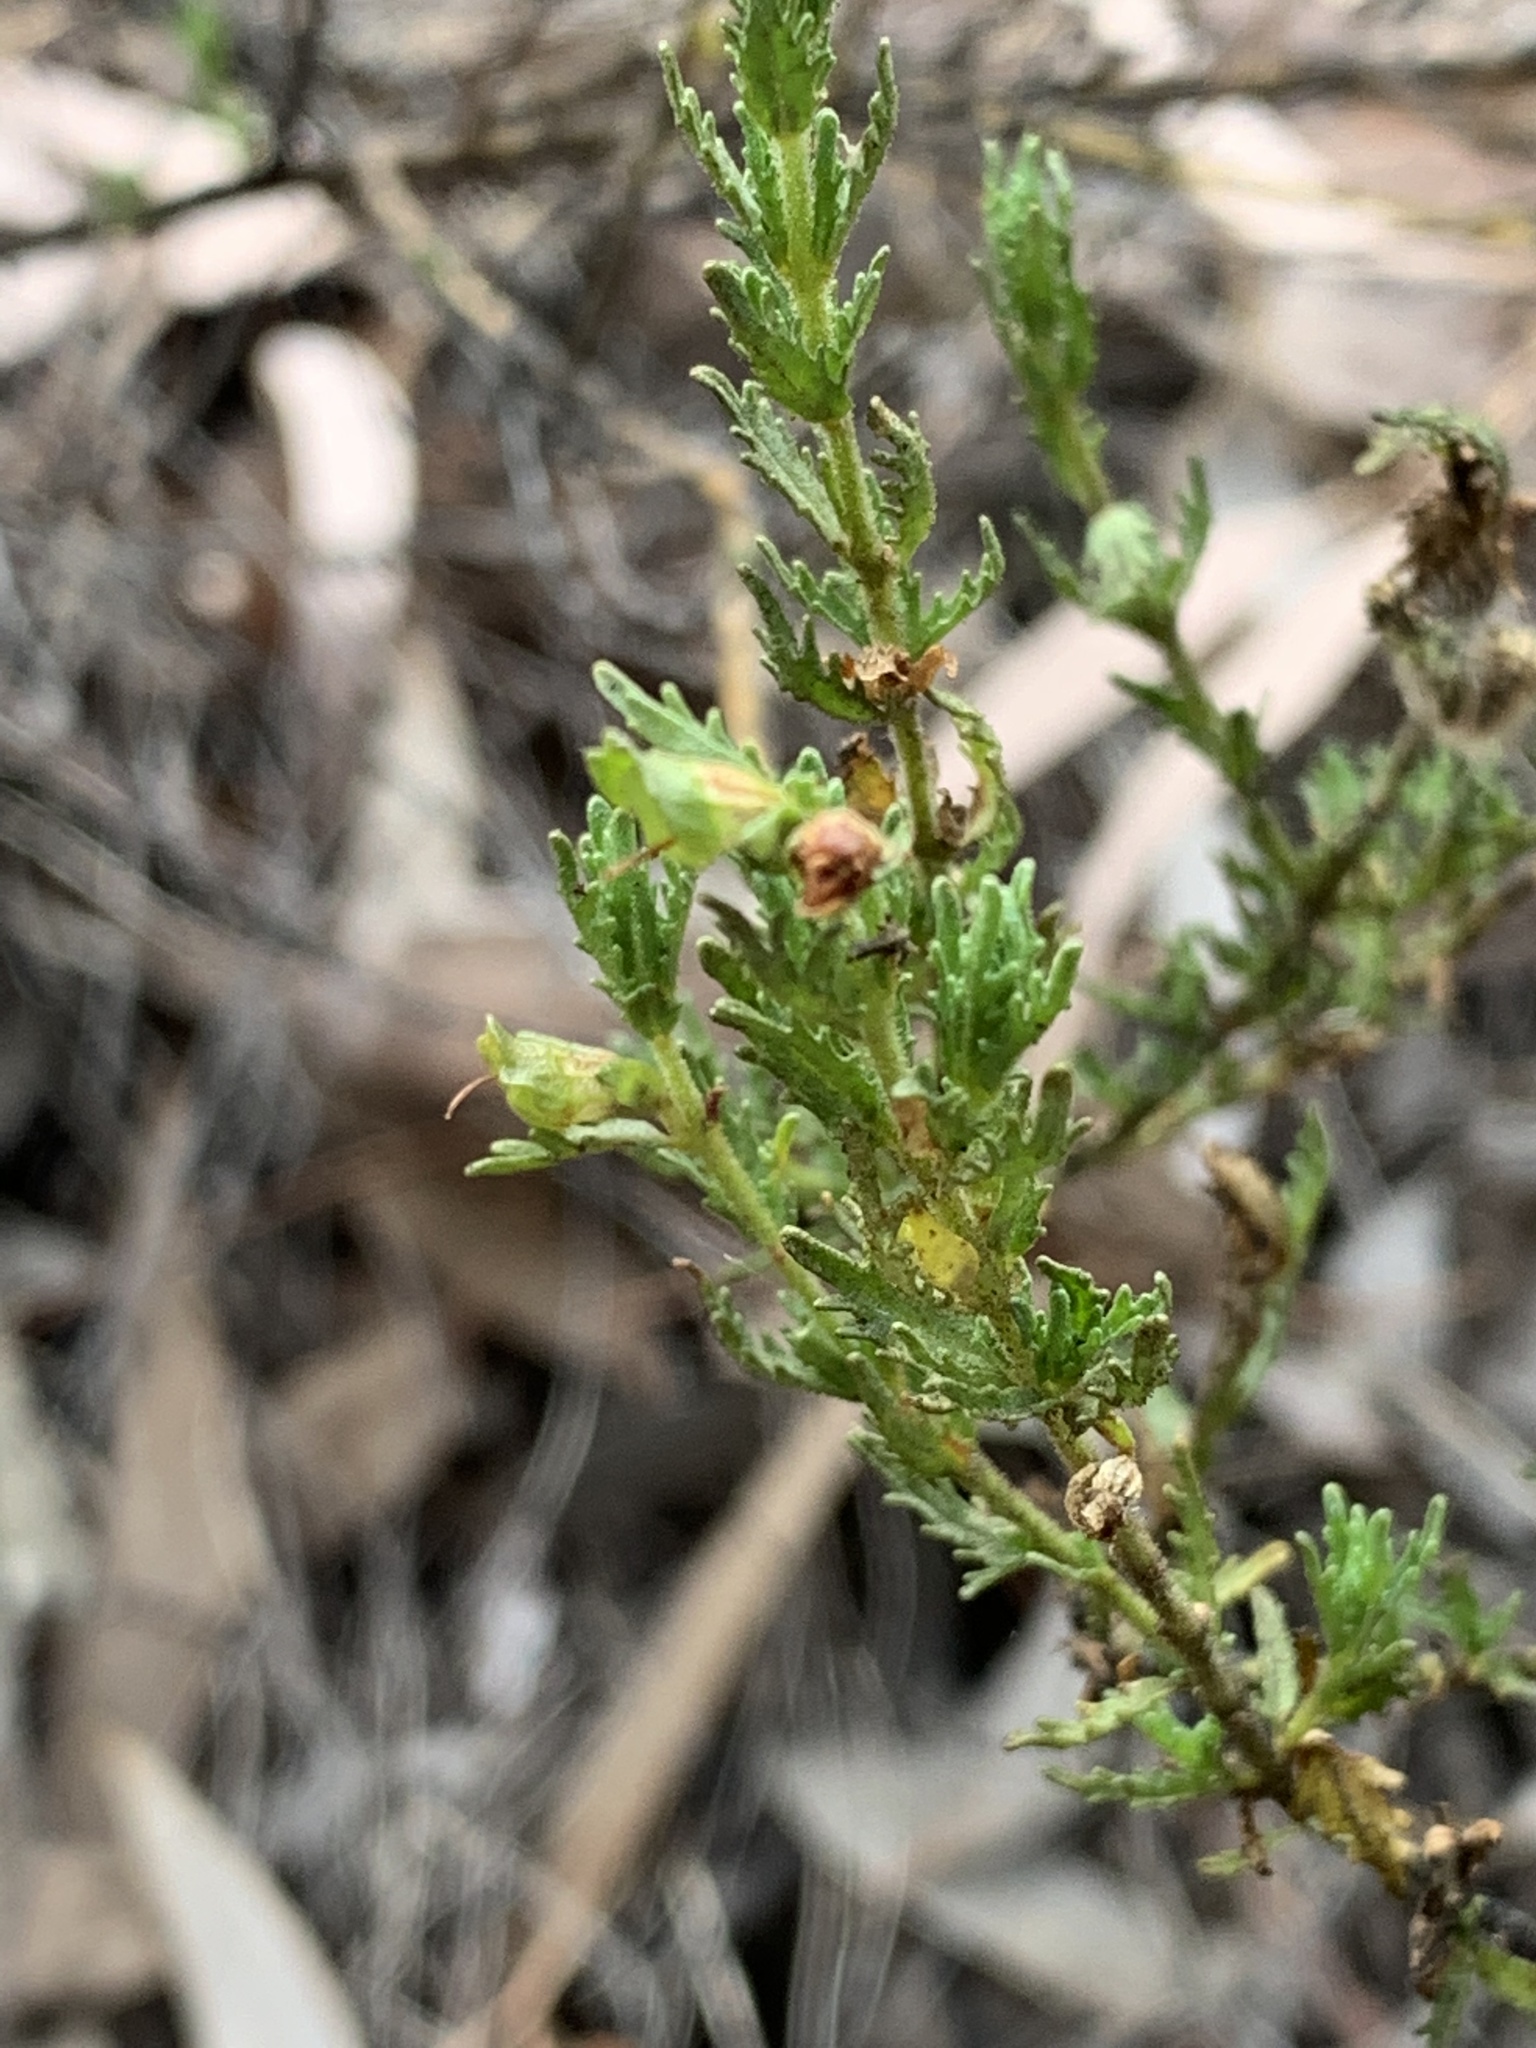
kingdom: Plantae
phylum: Tracheophyta
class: Magnoliopsida
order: Lamiales
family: Lamiaceae
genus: Prostanthera
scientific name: Prostanthera cryptandroides
